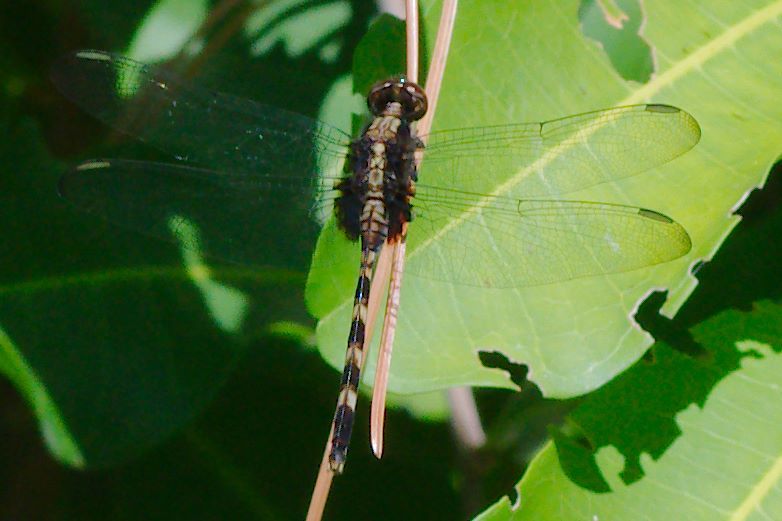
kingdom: Animalia
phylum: Arthropoda
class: Insecta
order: Odonata
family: Libellulidae
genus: Erythemis
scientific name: Erythemis plebeja
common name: Pin-tailed pondhawk
